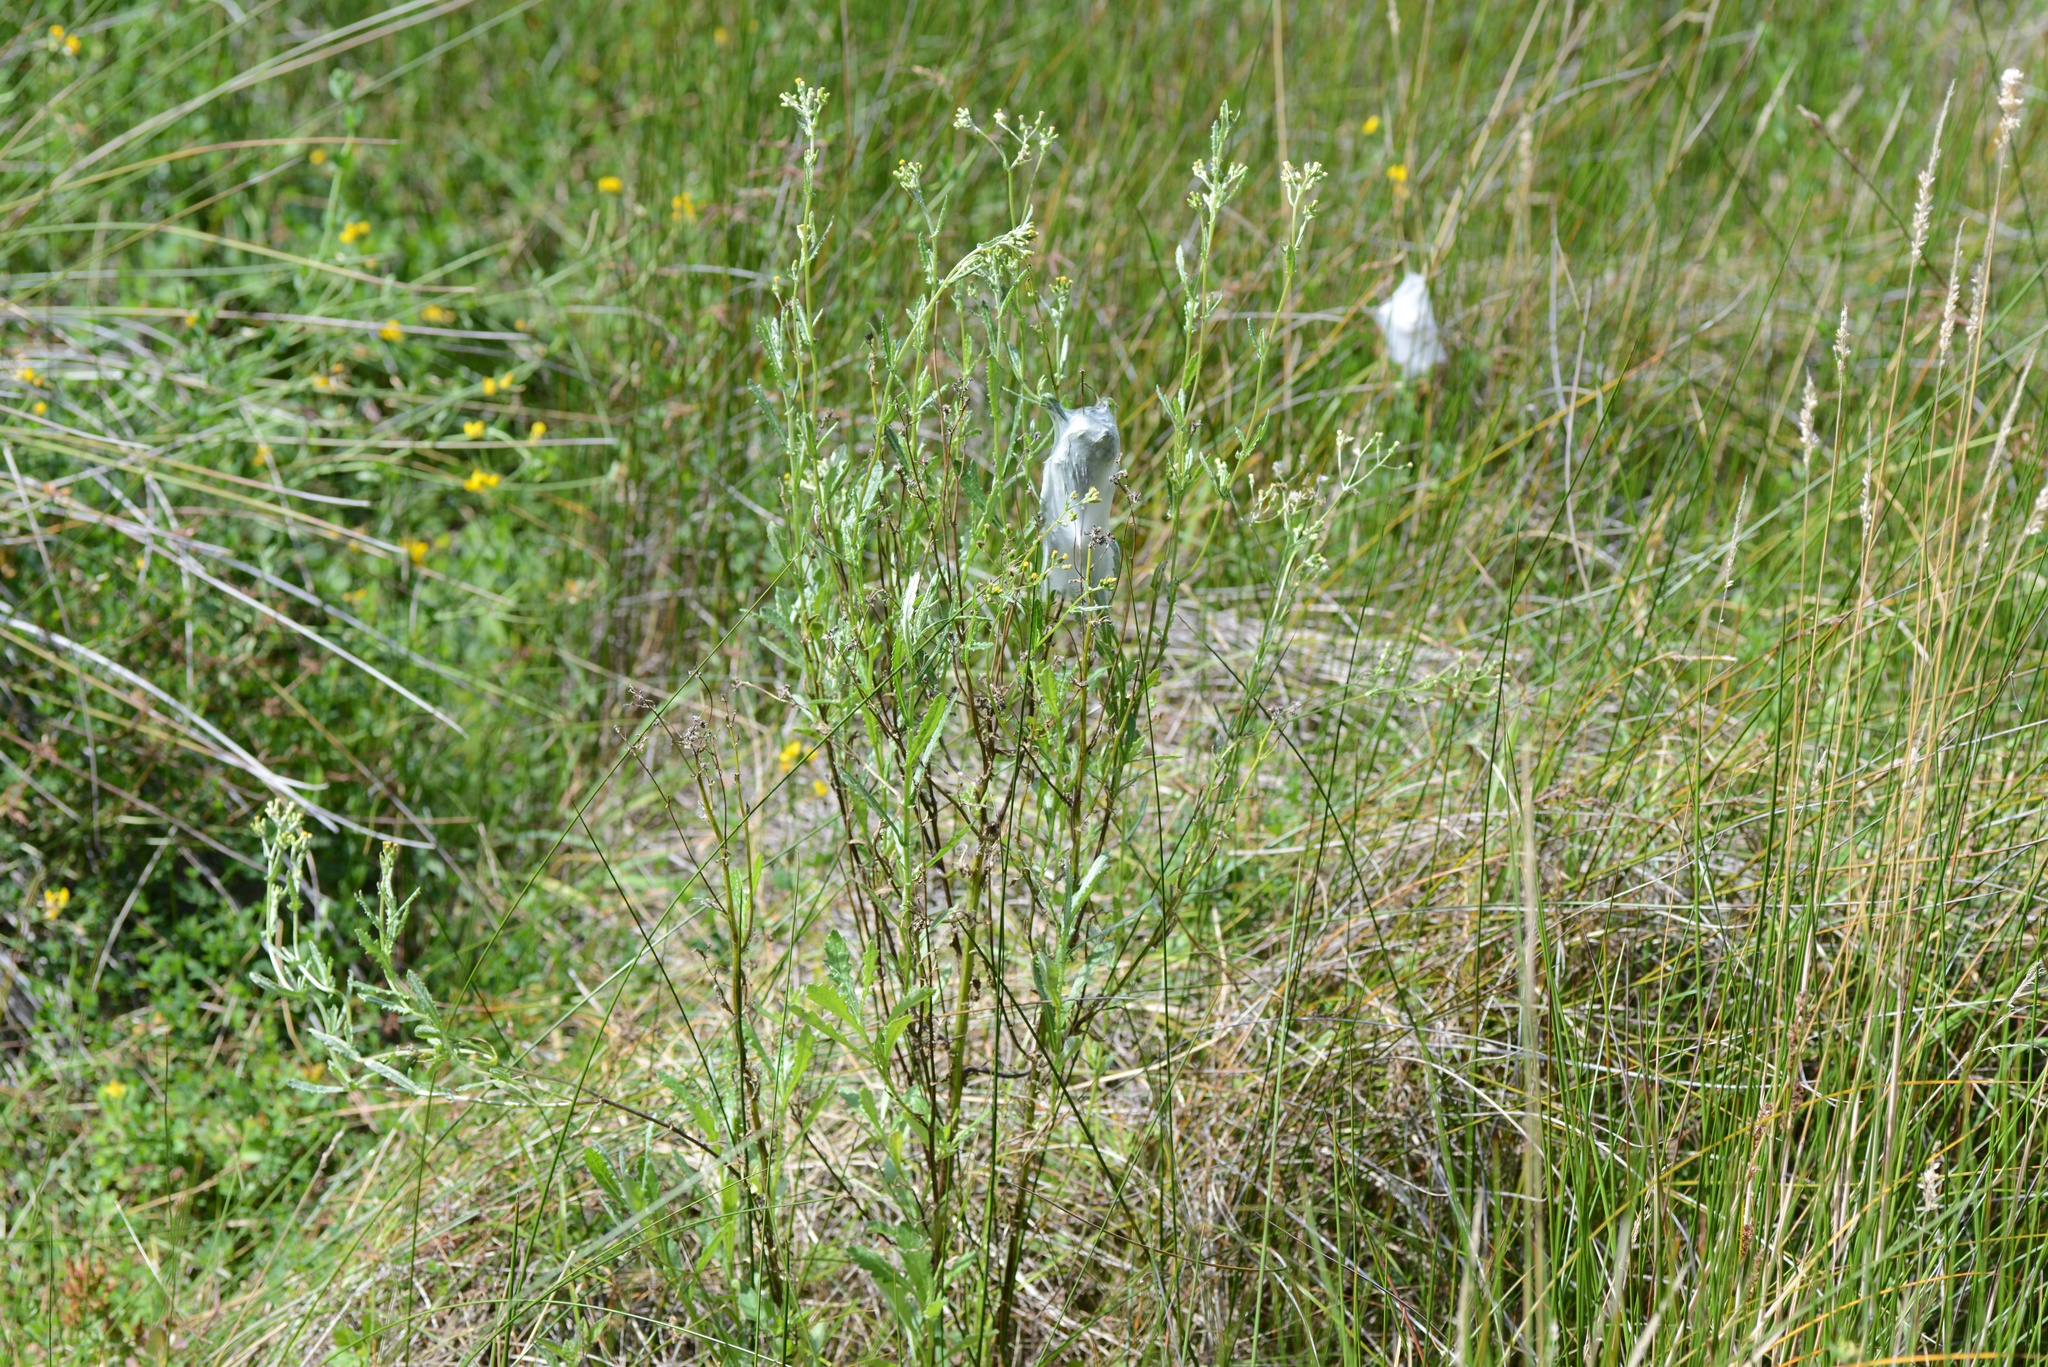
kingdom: Animalia
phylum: Arthropoda
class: Arachnida
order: Araneae
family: Pisauridae
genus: Dolomedes
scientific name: Dolomedes minor
